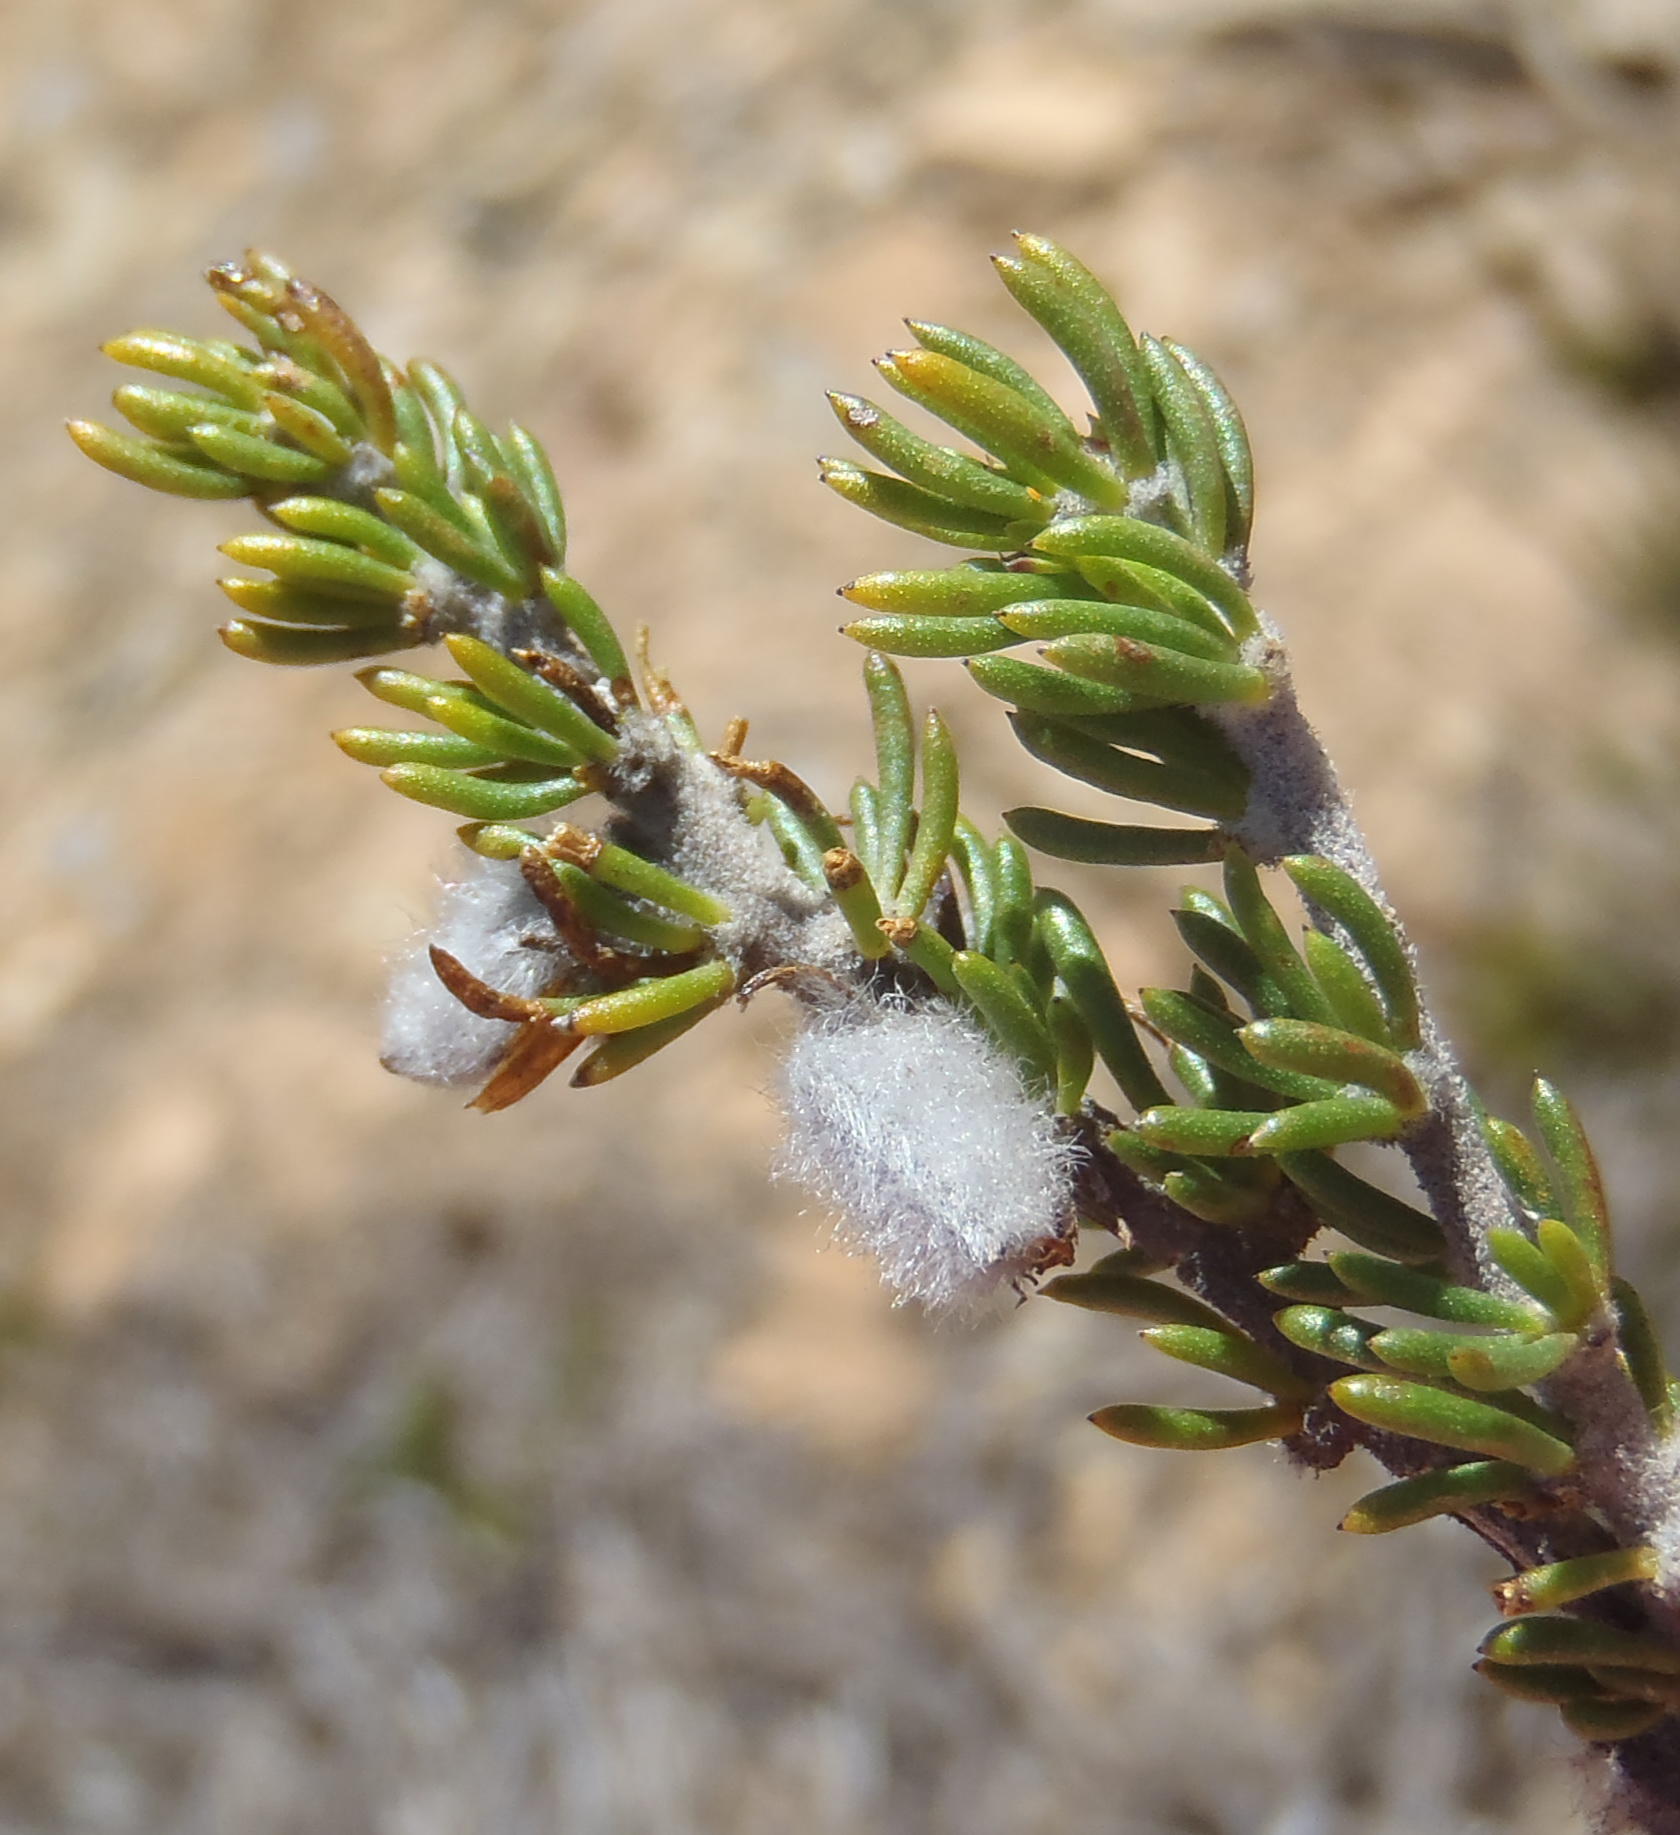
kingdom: Plantae
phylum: Tracheophyta
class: Magnoliopsida
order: Fabales
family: Fabaceae
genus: Aspalathus
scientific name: Aspalathus congesta
